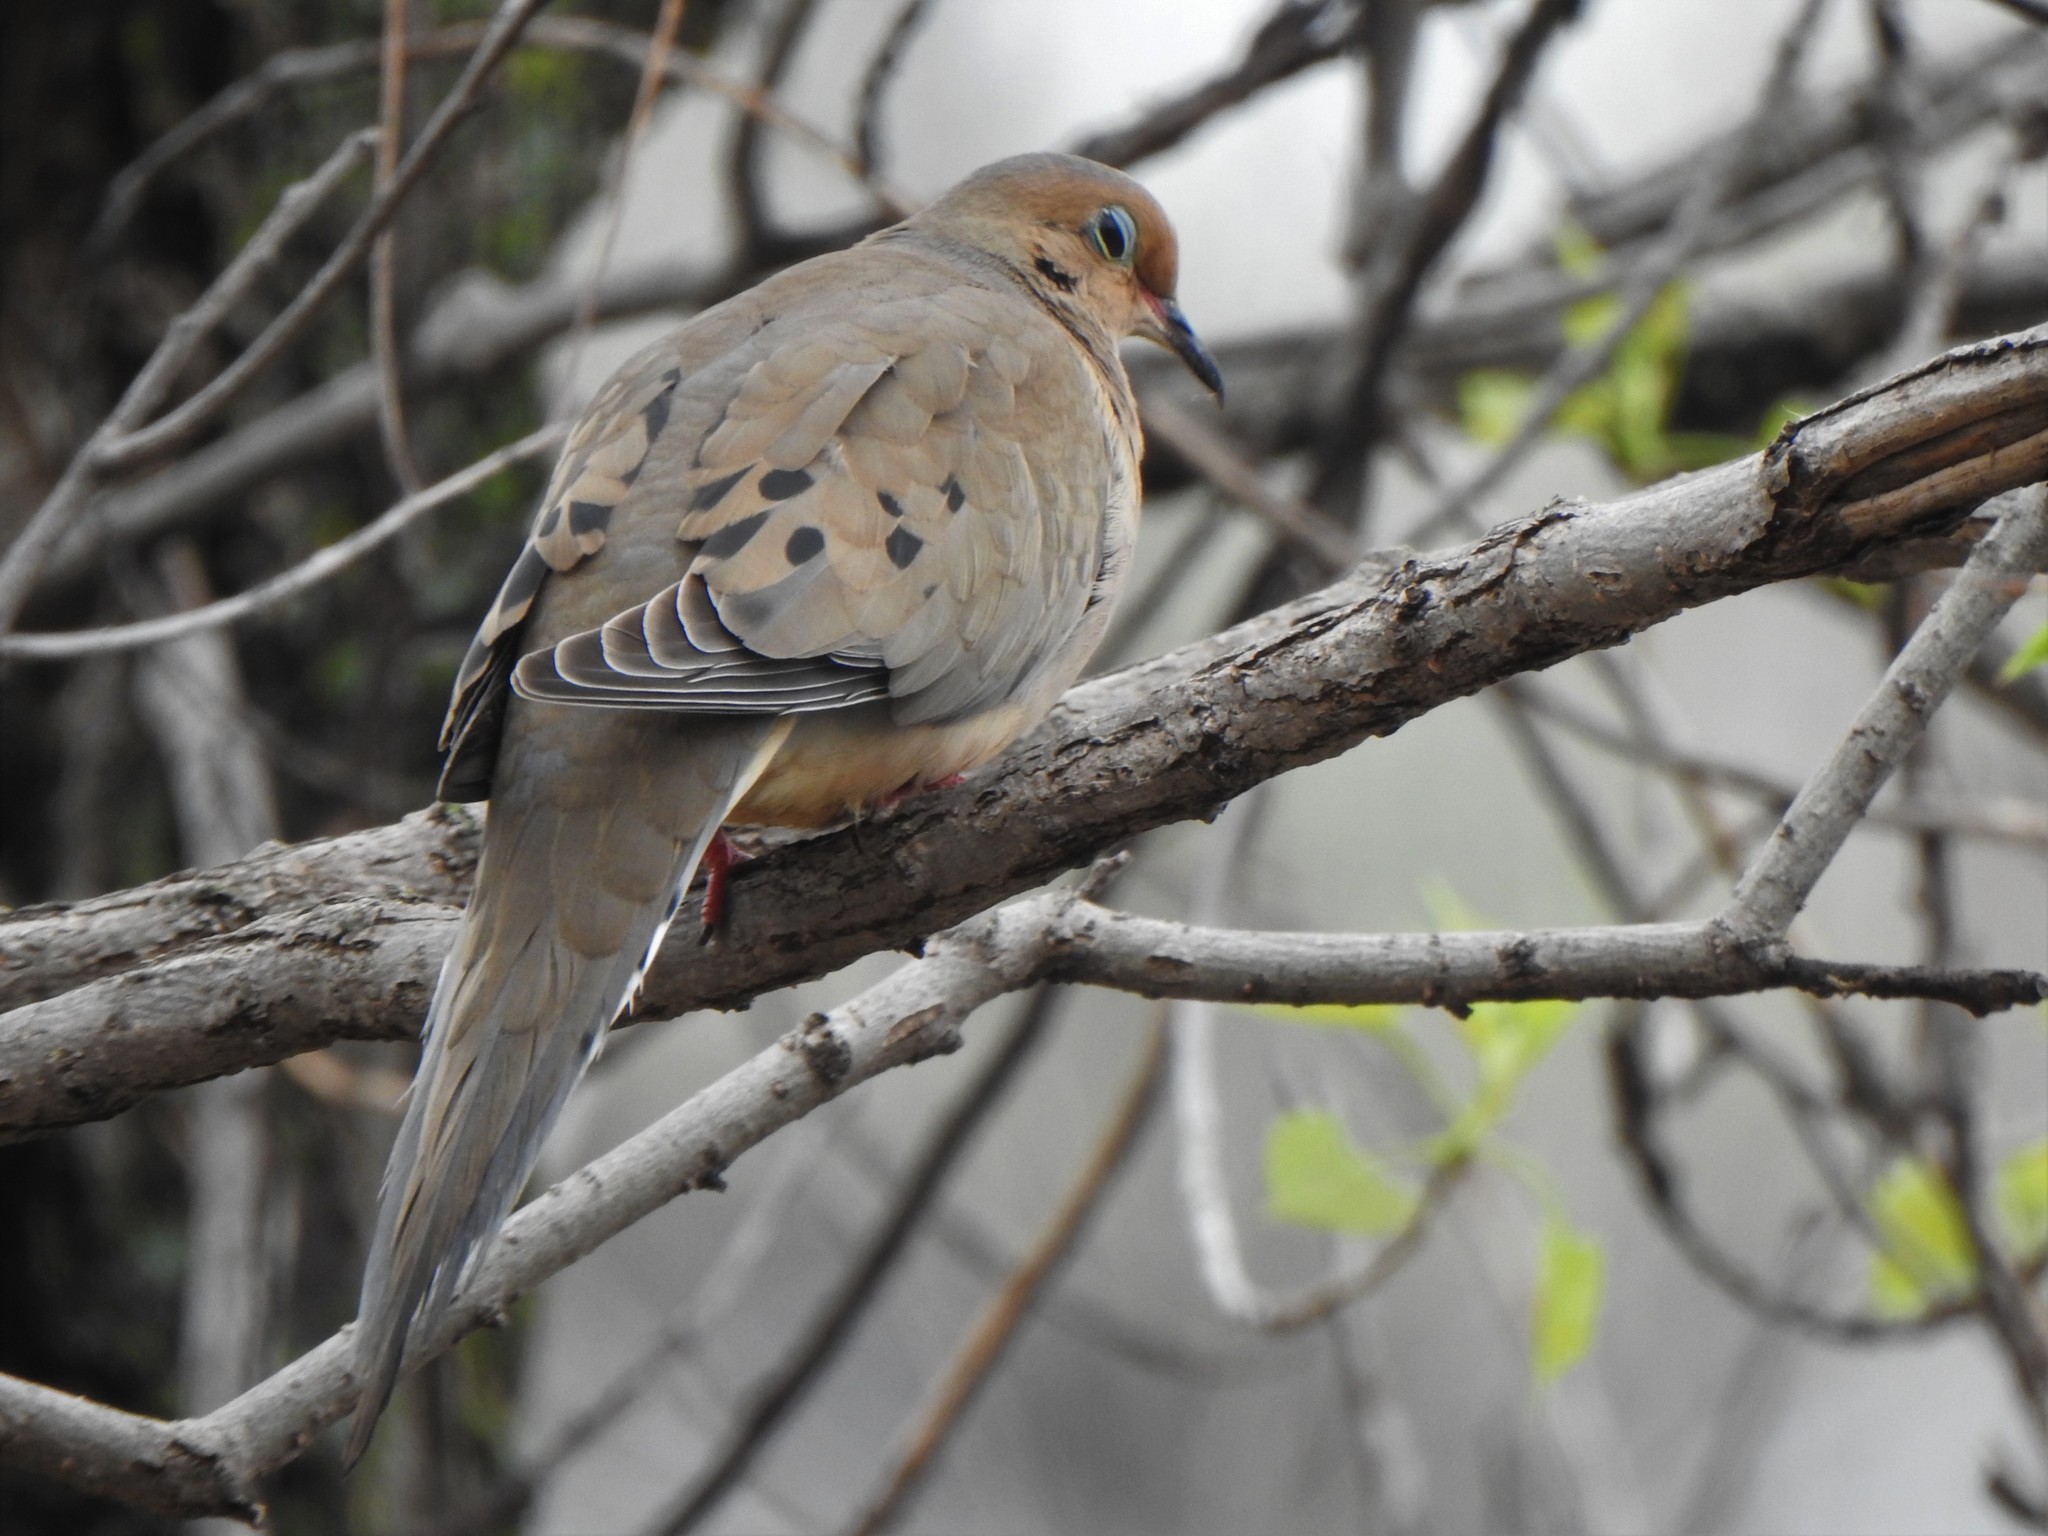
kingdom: Animalia
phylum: Chordata
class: Aves
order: Columbiformes
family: Columbidae
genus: Zenaida
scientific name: Zenaida macroura
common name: Mourning dove
